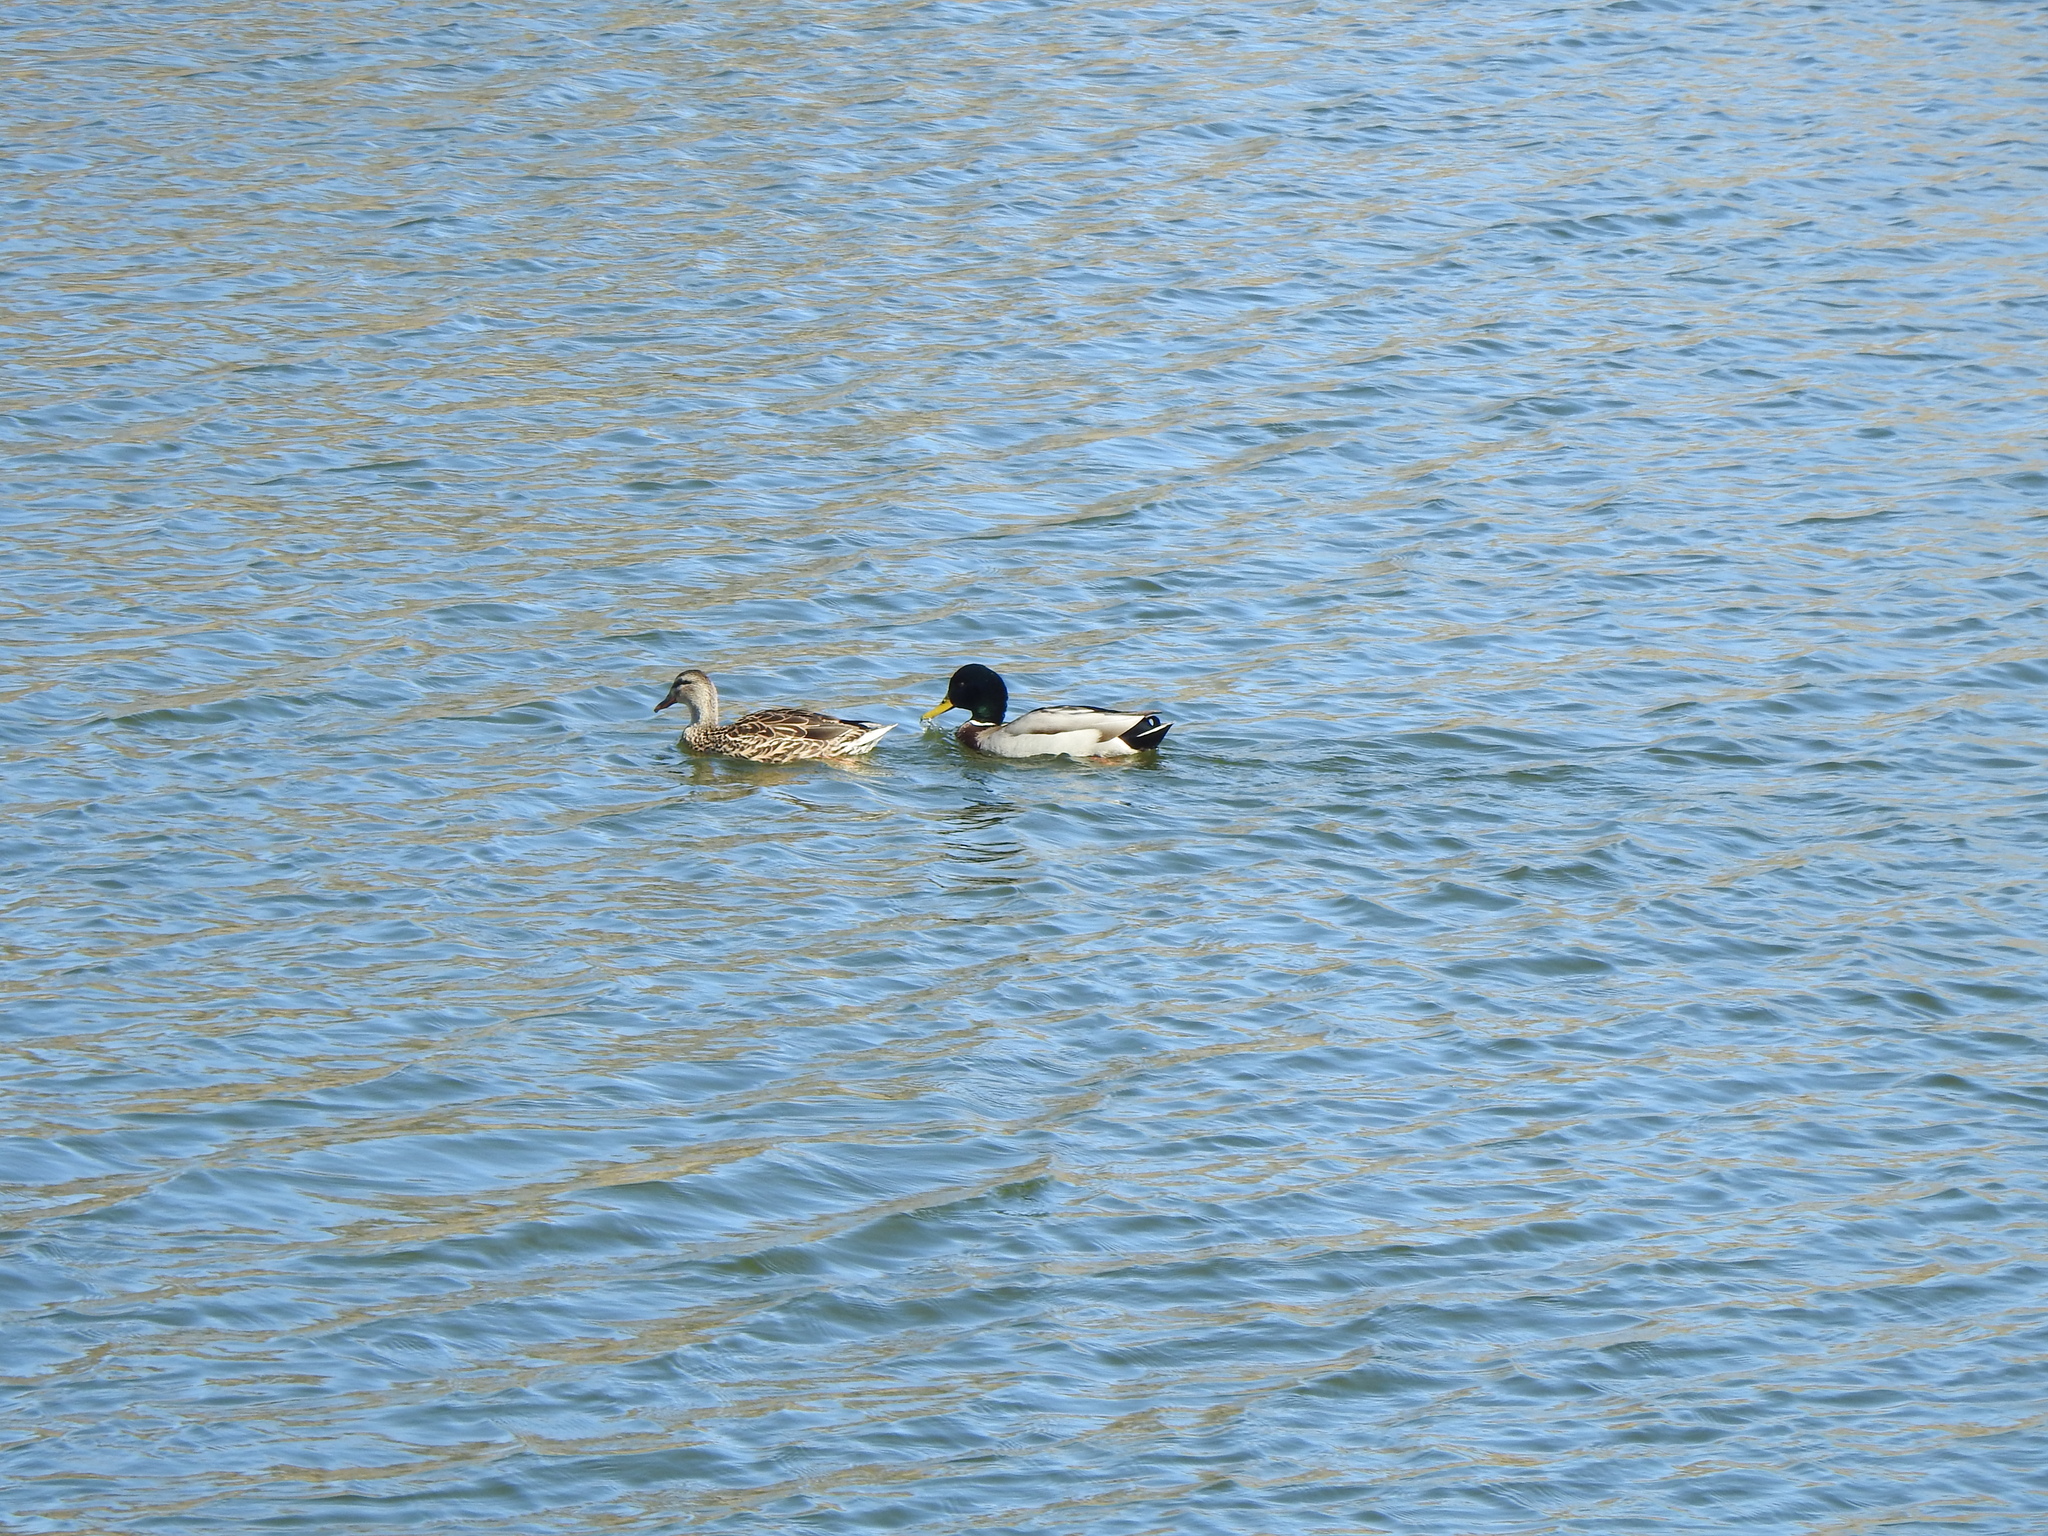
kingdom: Animalia
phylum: Chordata
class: Aves
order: Anseriformes
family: Anatidae
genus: Anas
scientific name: Anas platyrhynchos
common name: Mallard
